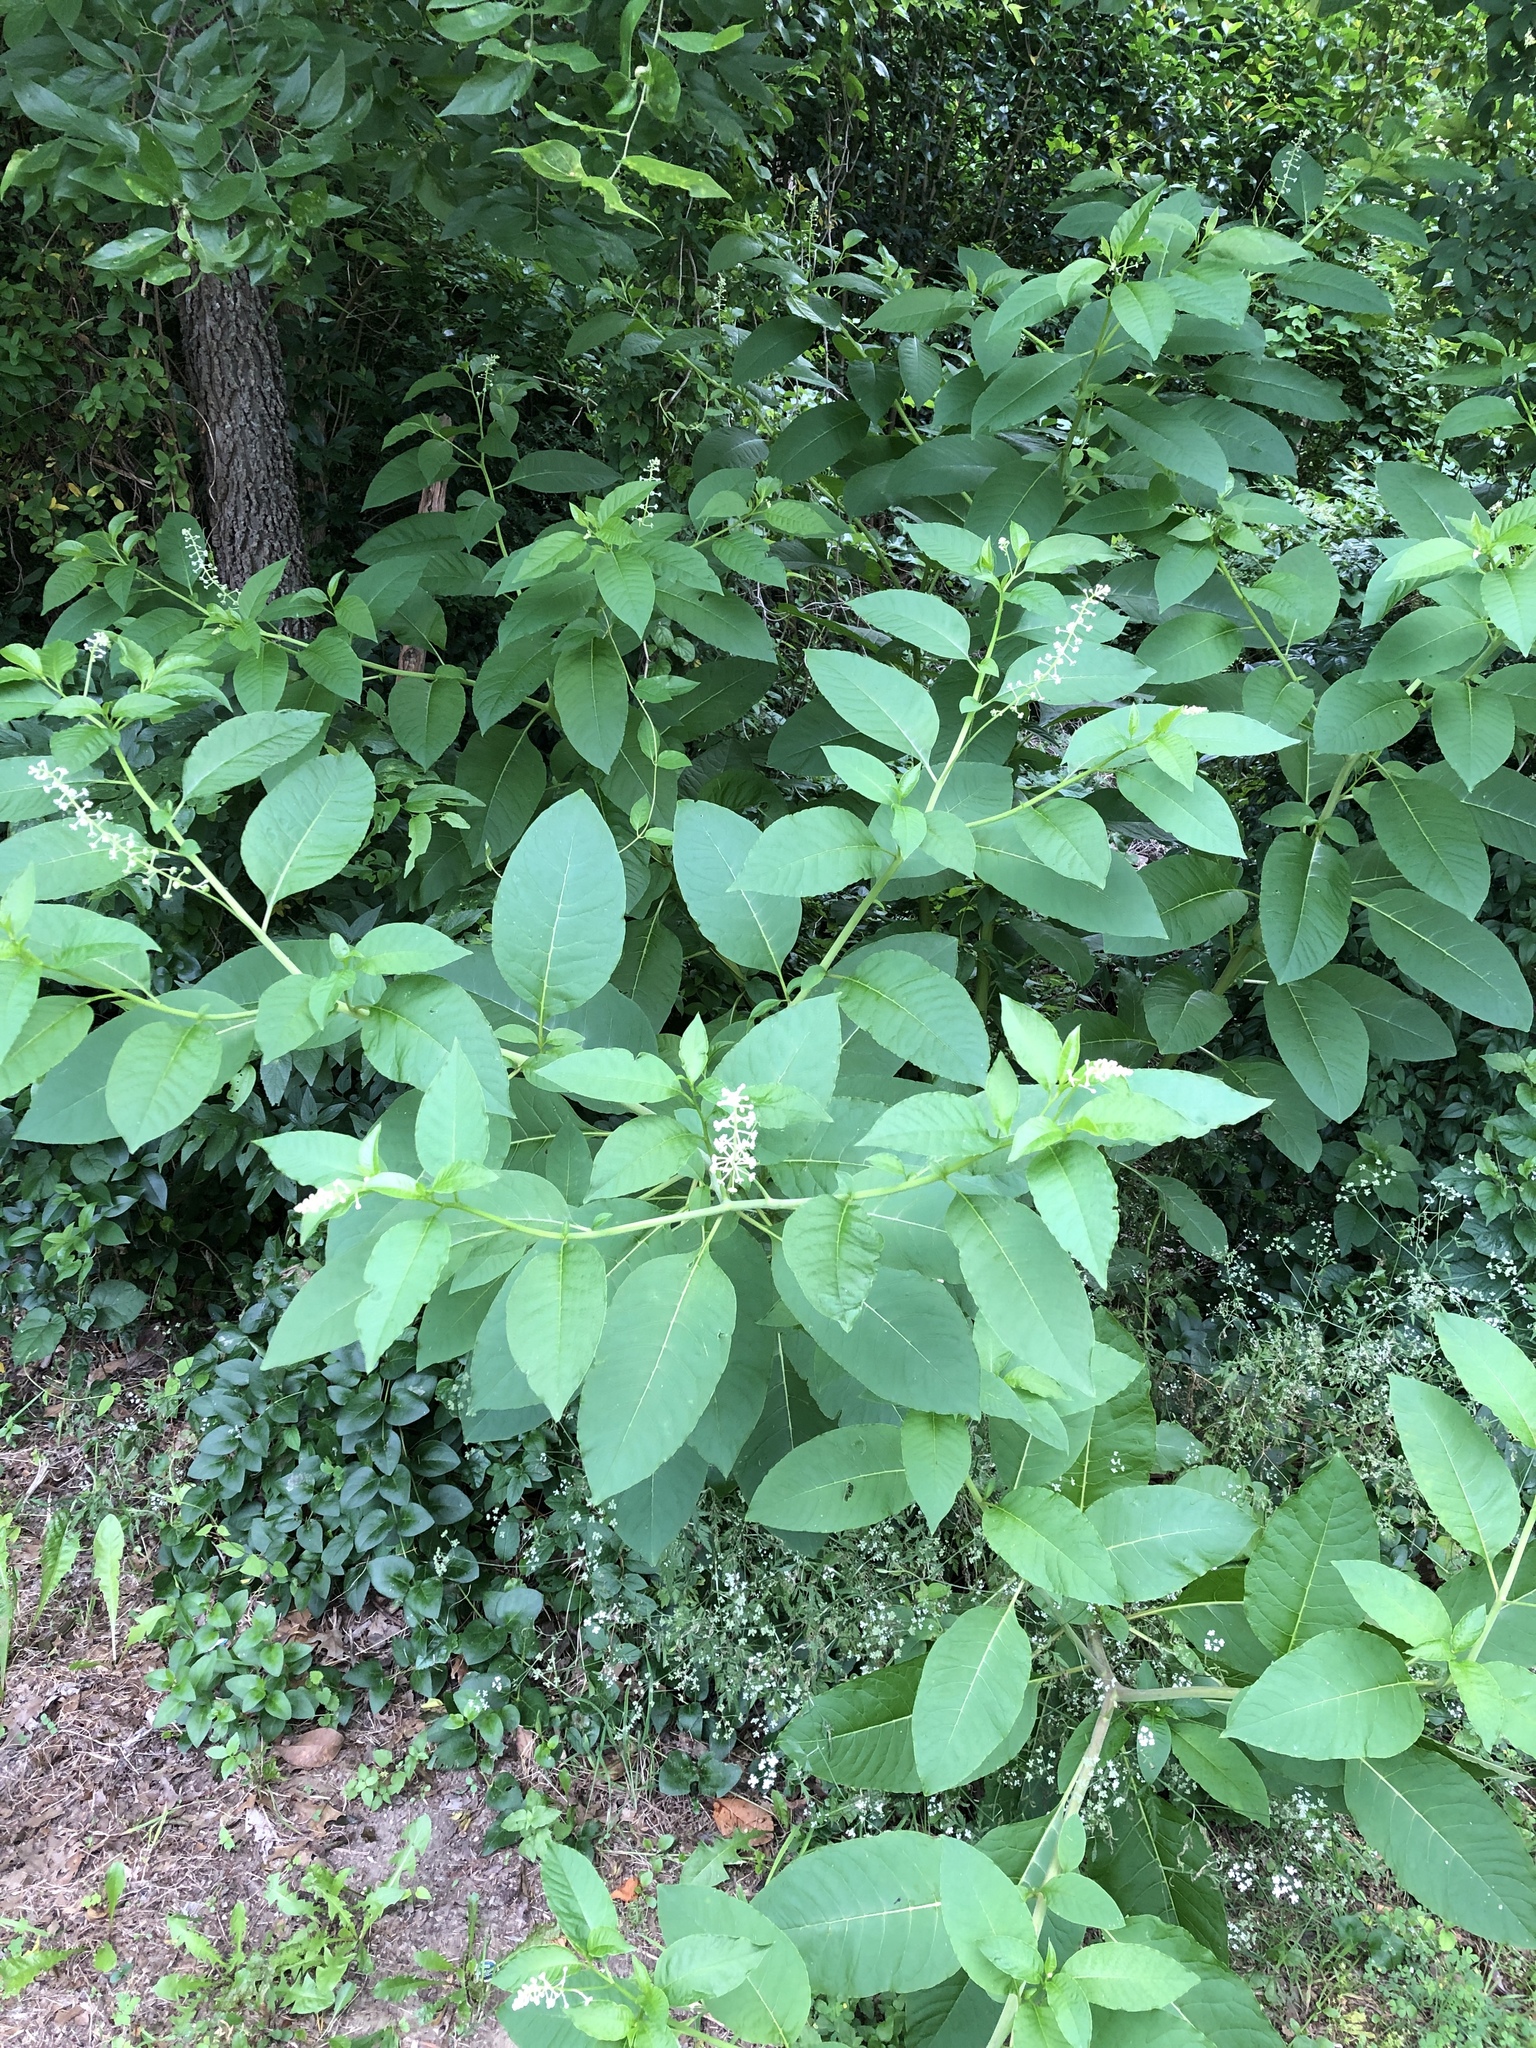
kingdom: Plantae
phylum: Tracheophyta
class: Magnoliopsida
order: Caryophyllales
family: Phytolaccaceae
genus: Phytolacca
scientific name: Phytolacca americana
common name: American pokeweed
